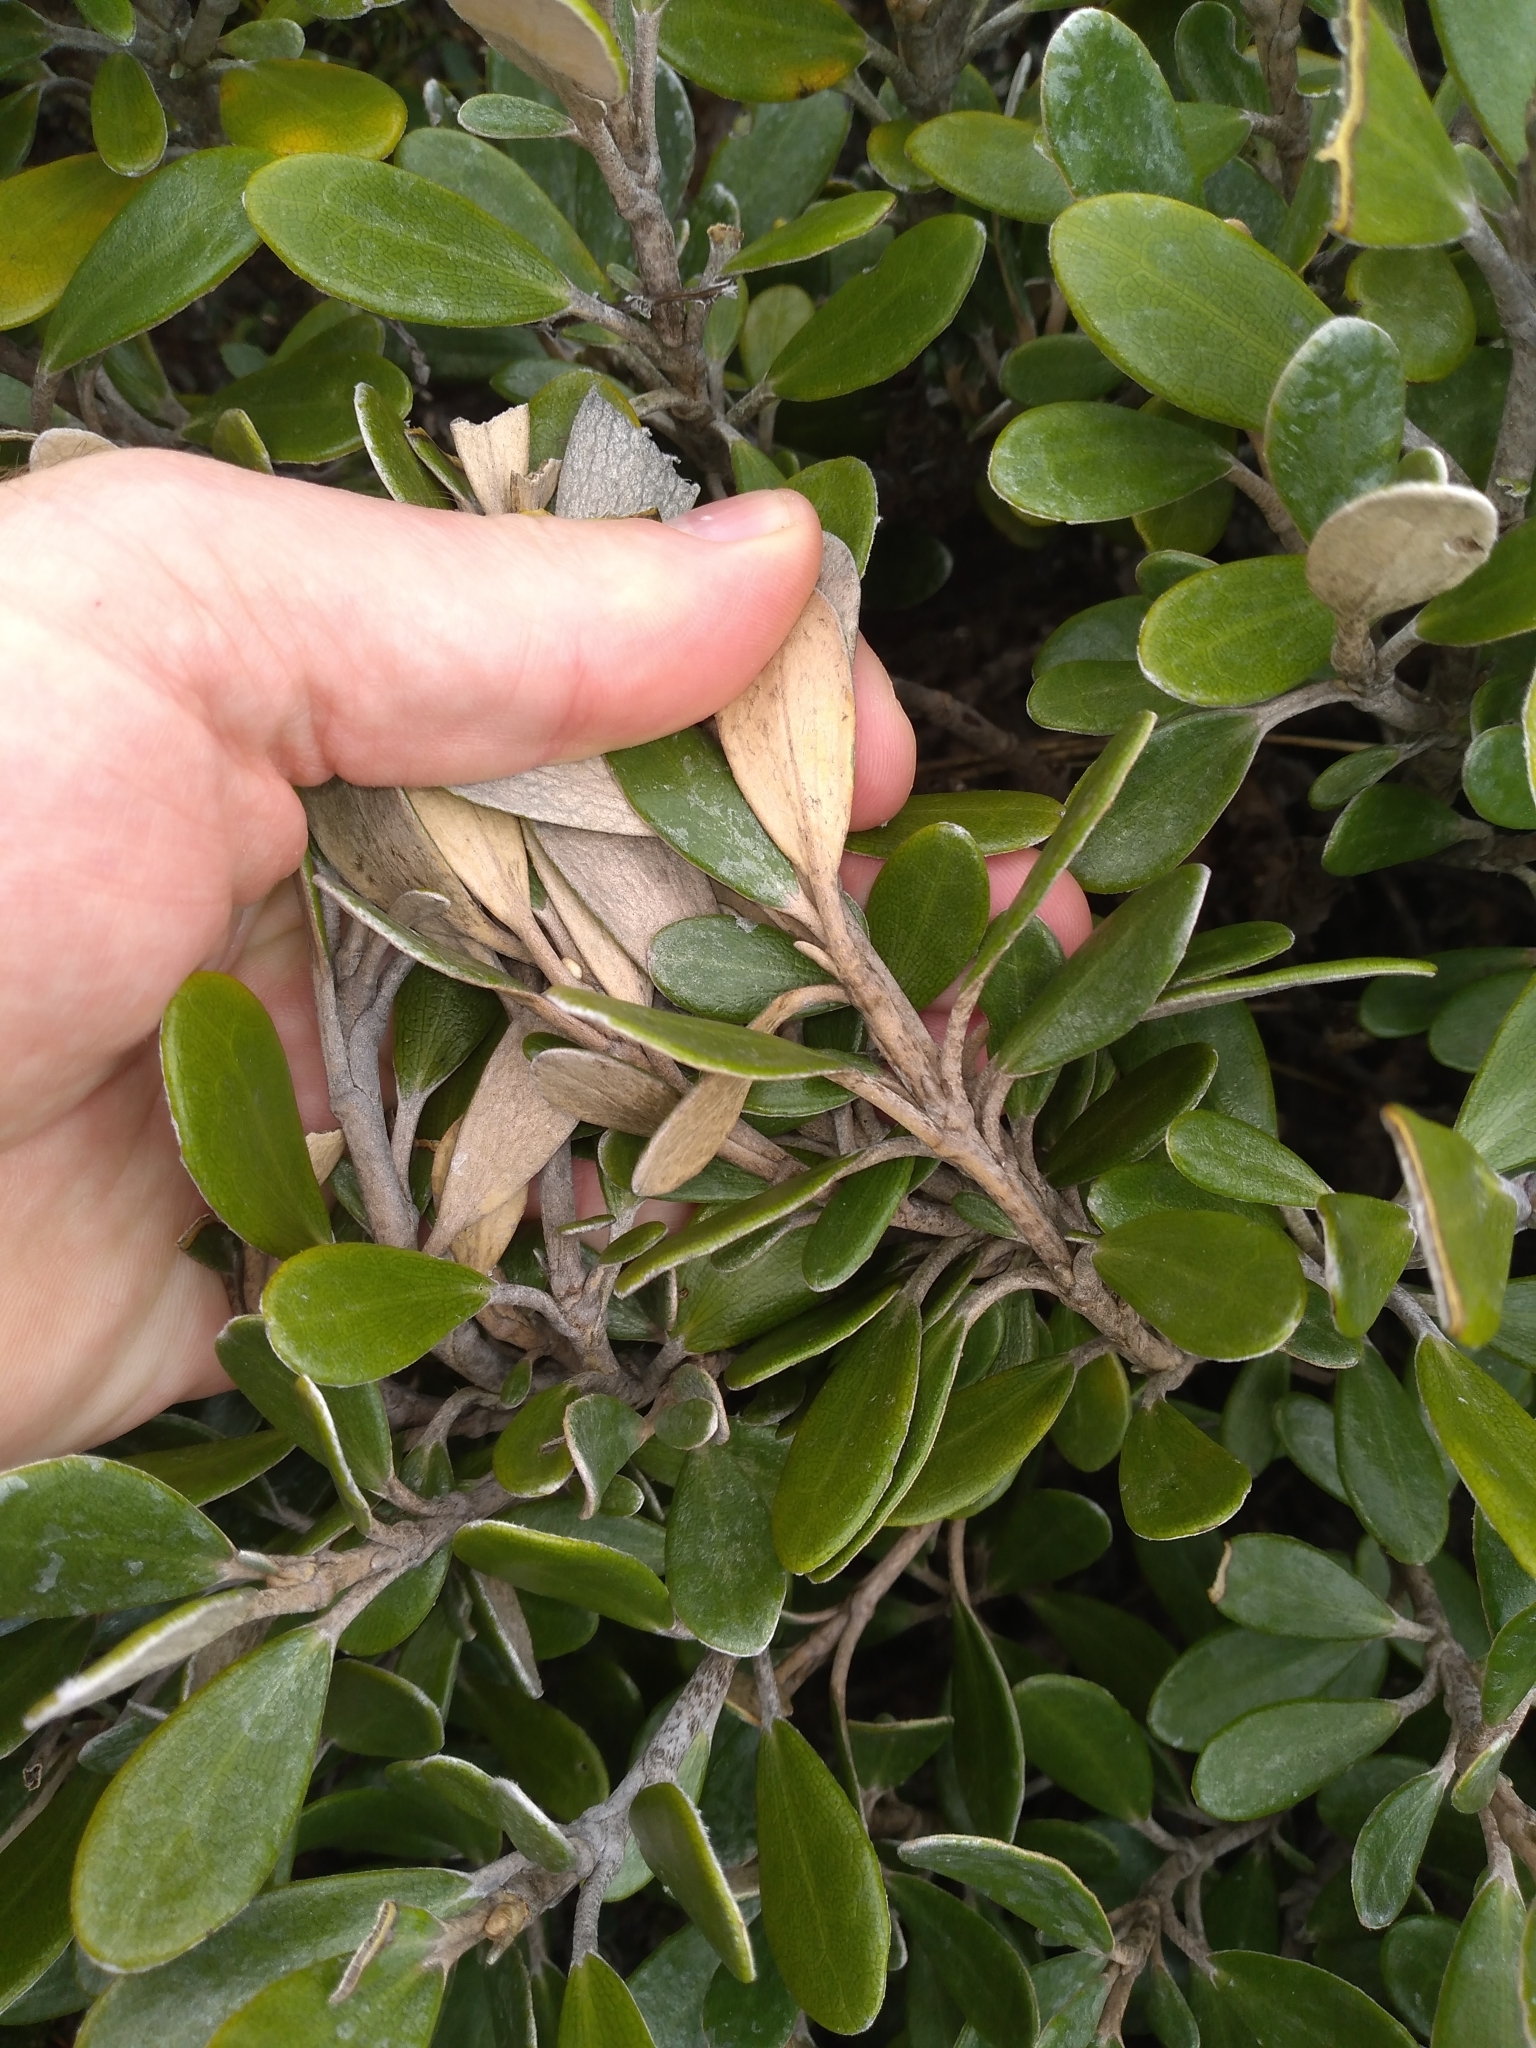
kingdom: Plantae
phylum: Tracheophyta
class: Magnoliopsida
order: Asterales
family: Asteraceae
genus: Brachyglottis
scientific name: Brachyglottis bidwillii
